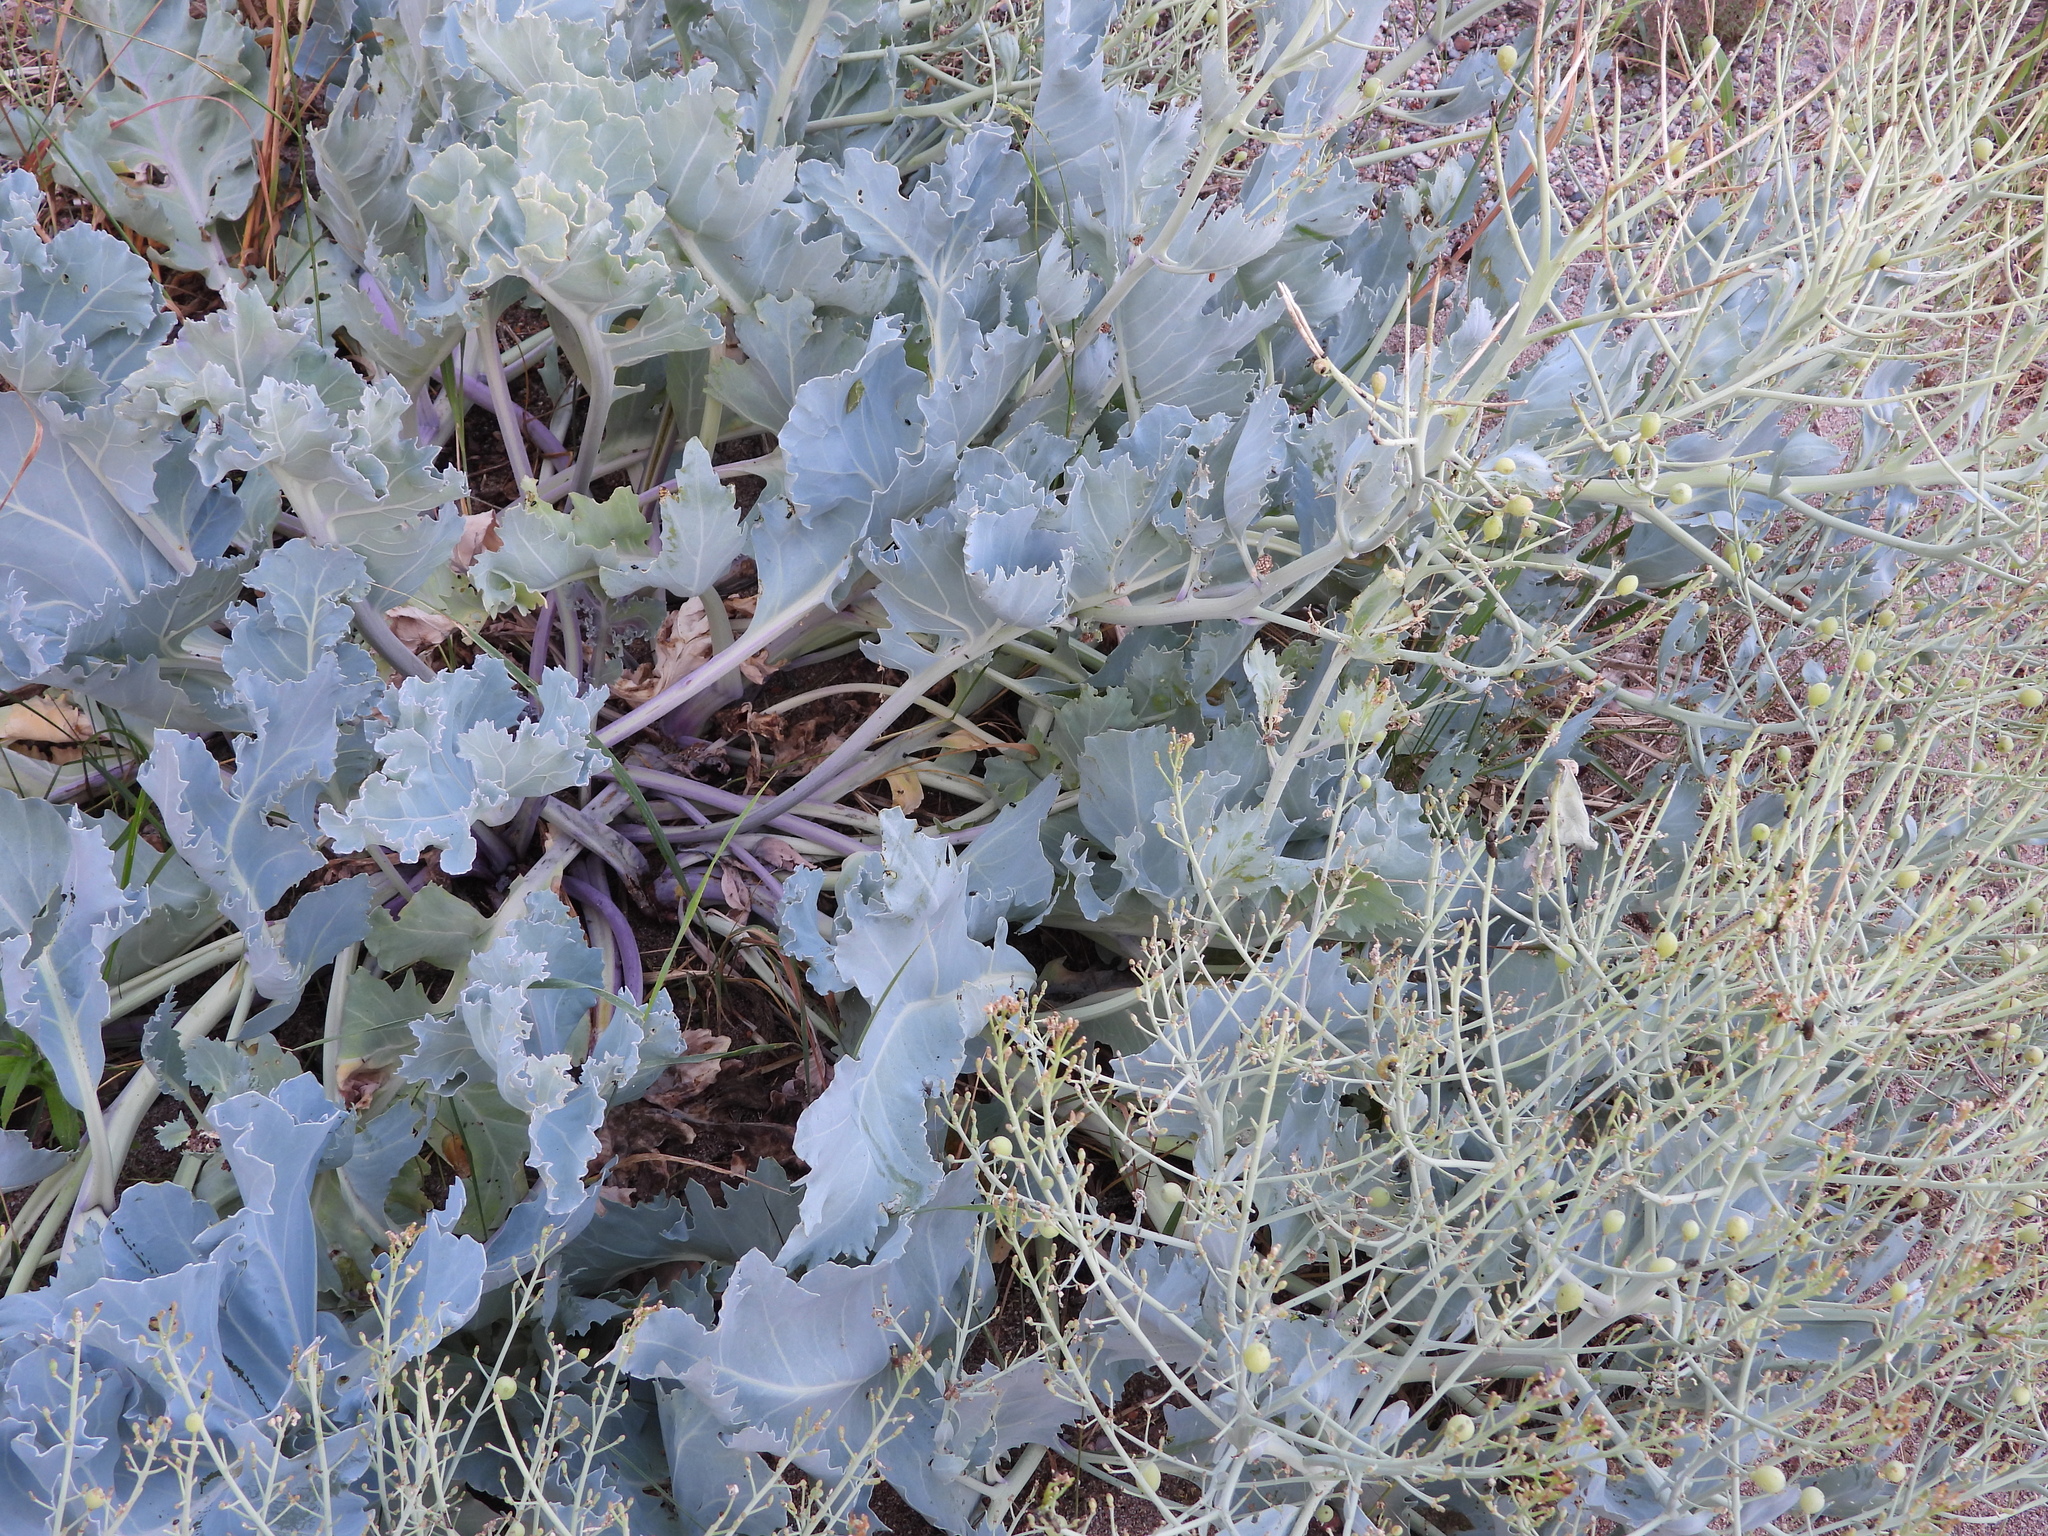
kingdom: Plantae
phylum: Tracheophyta
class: Magnoliopsida
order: Brassicales
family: Brassicaceae
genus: Crambe
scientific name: Crambe maritima
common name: Sea-kale
